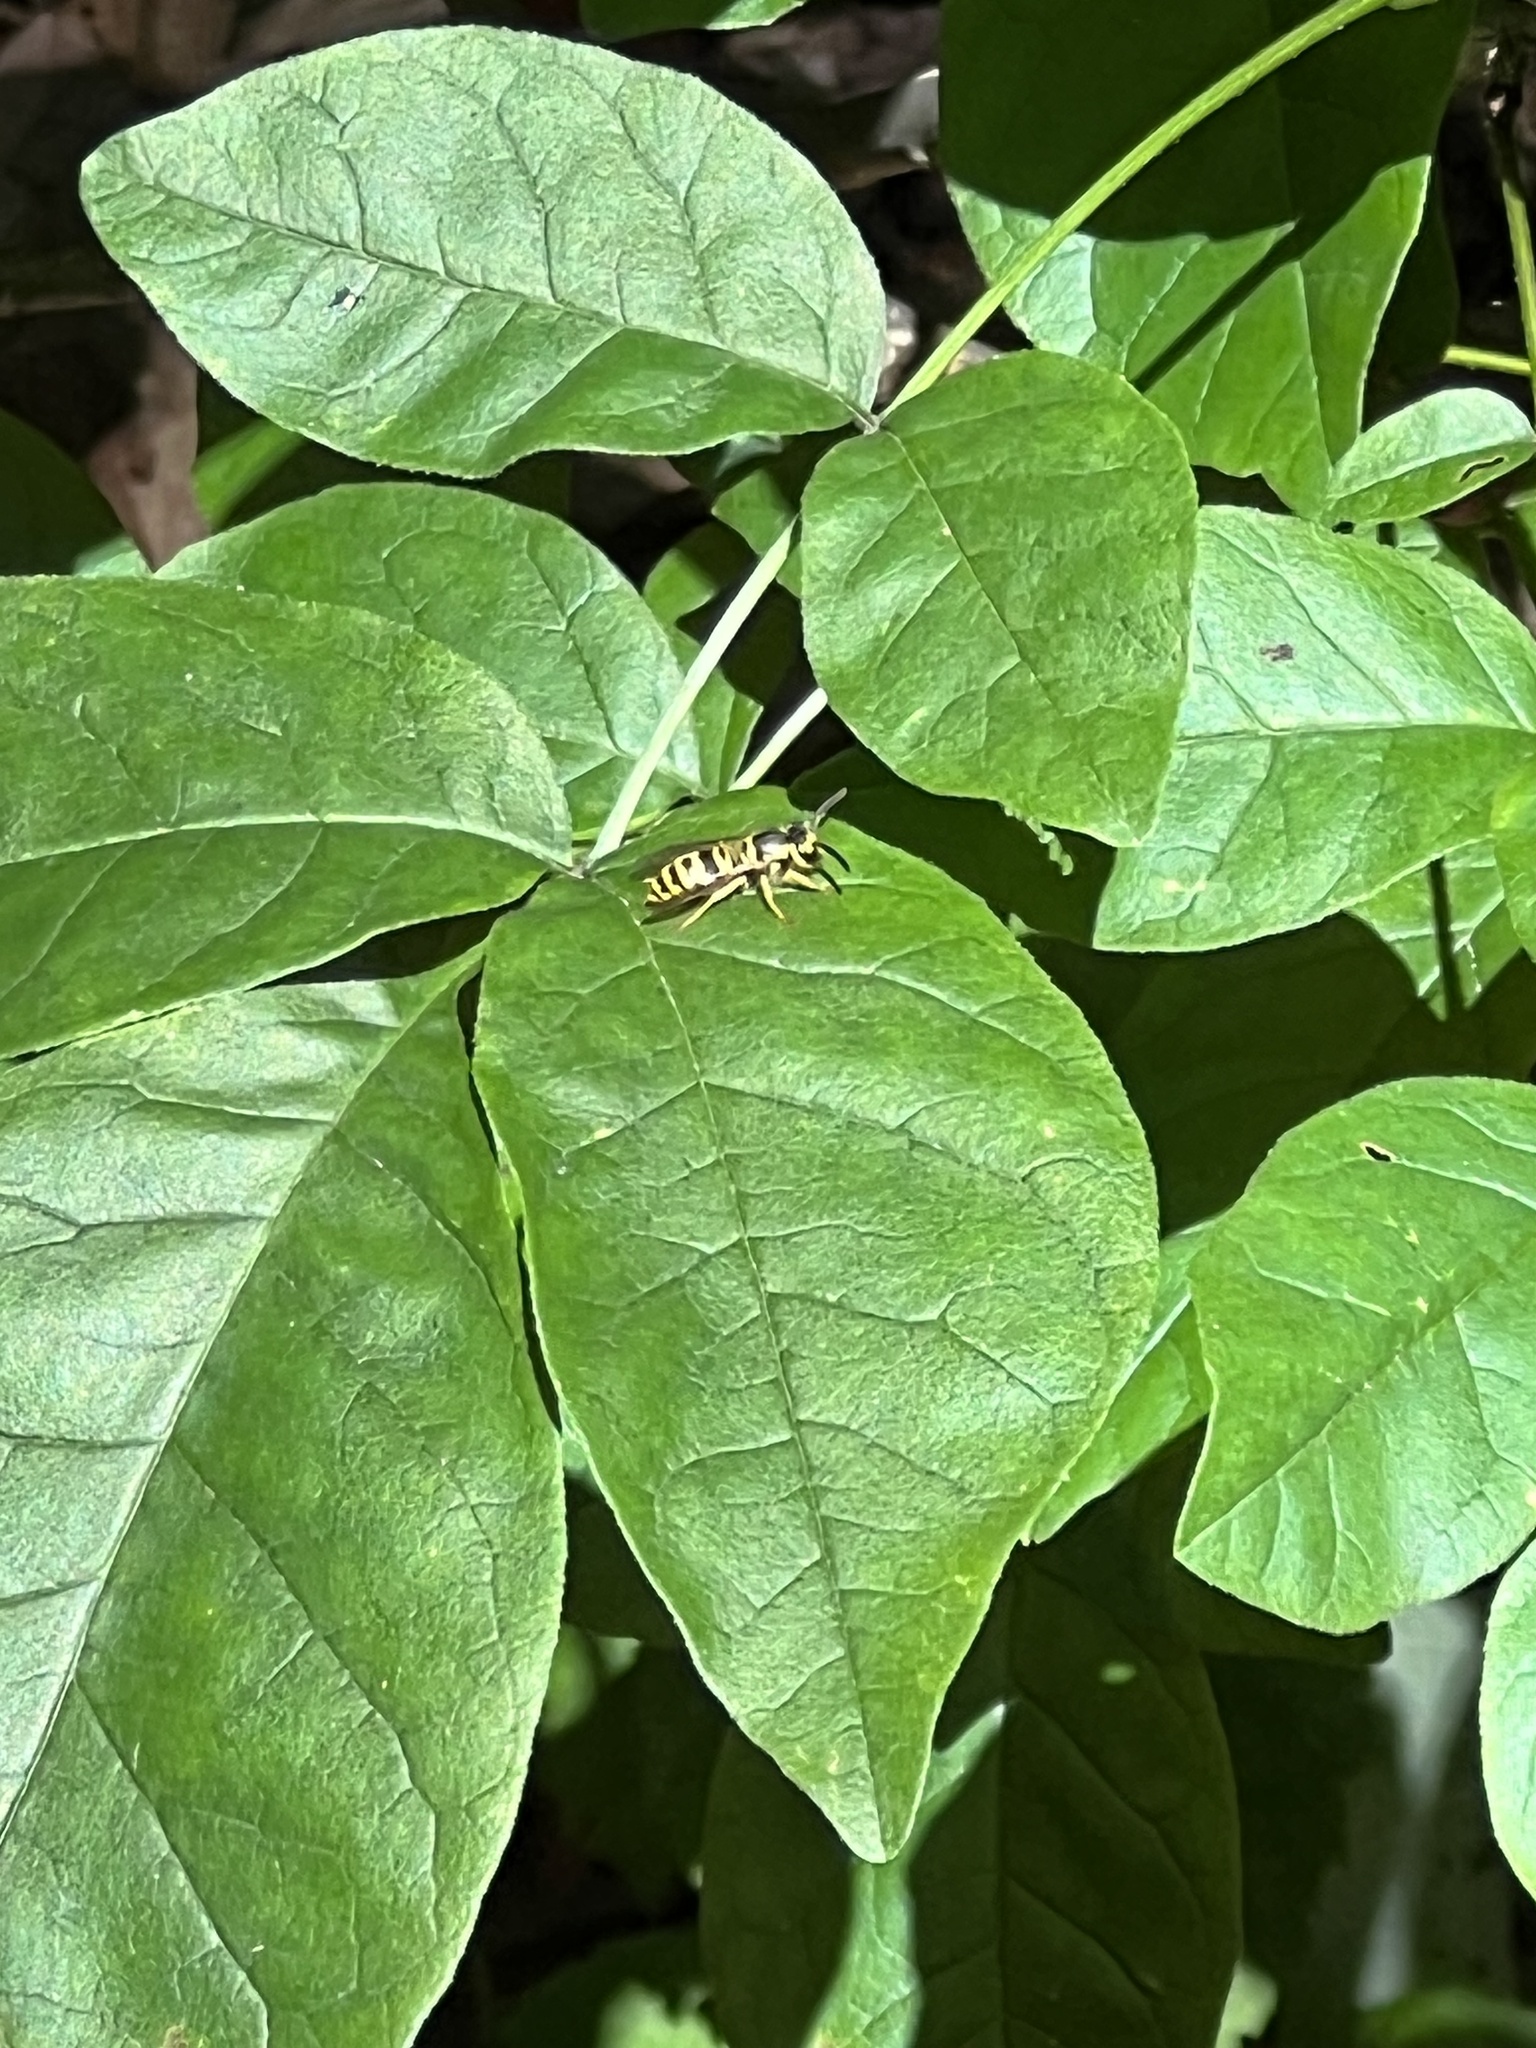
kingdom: Animalia
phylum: Arthropoda
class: Insecta
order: Hymenoptera
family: Vespidae
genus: Vespula
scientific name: Vespula maculifrons
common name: Eastern yellowjacket
